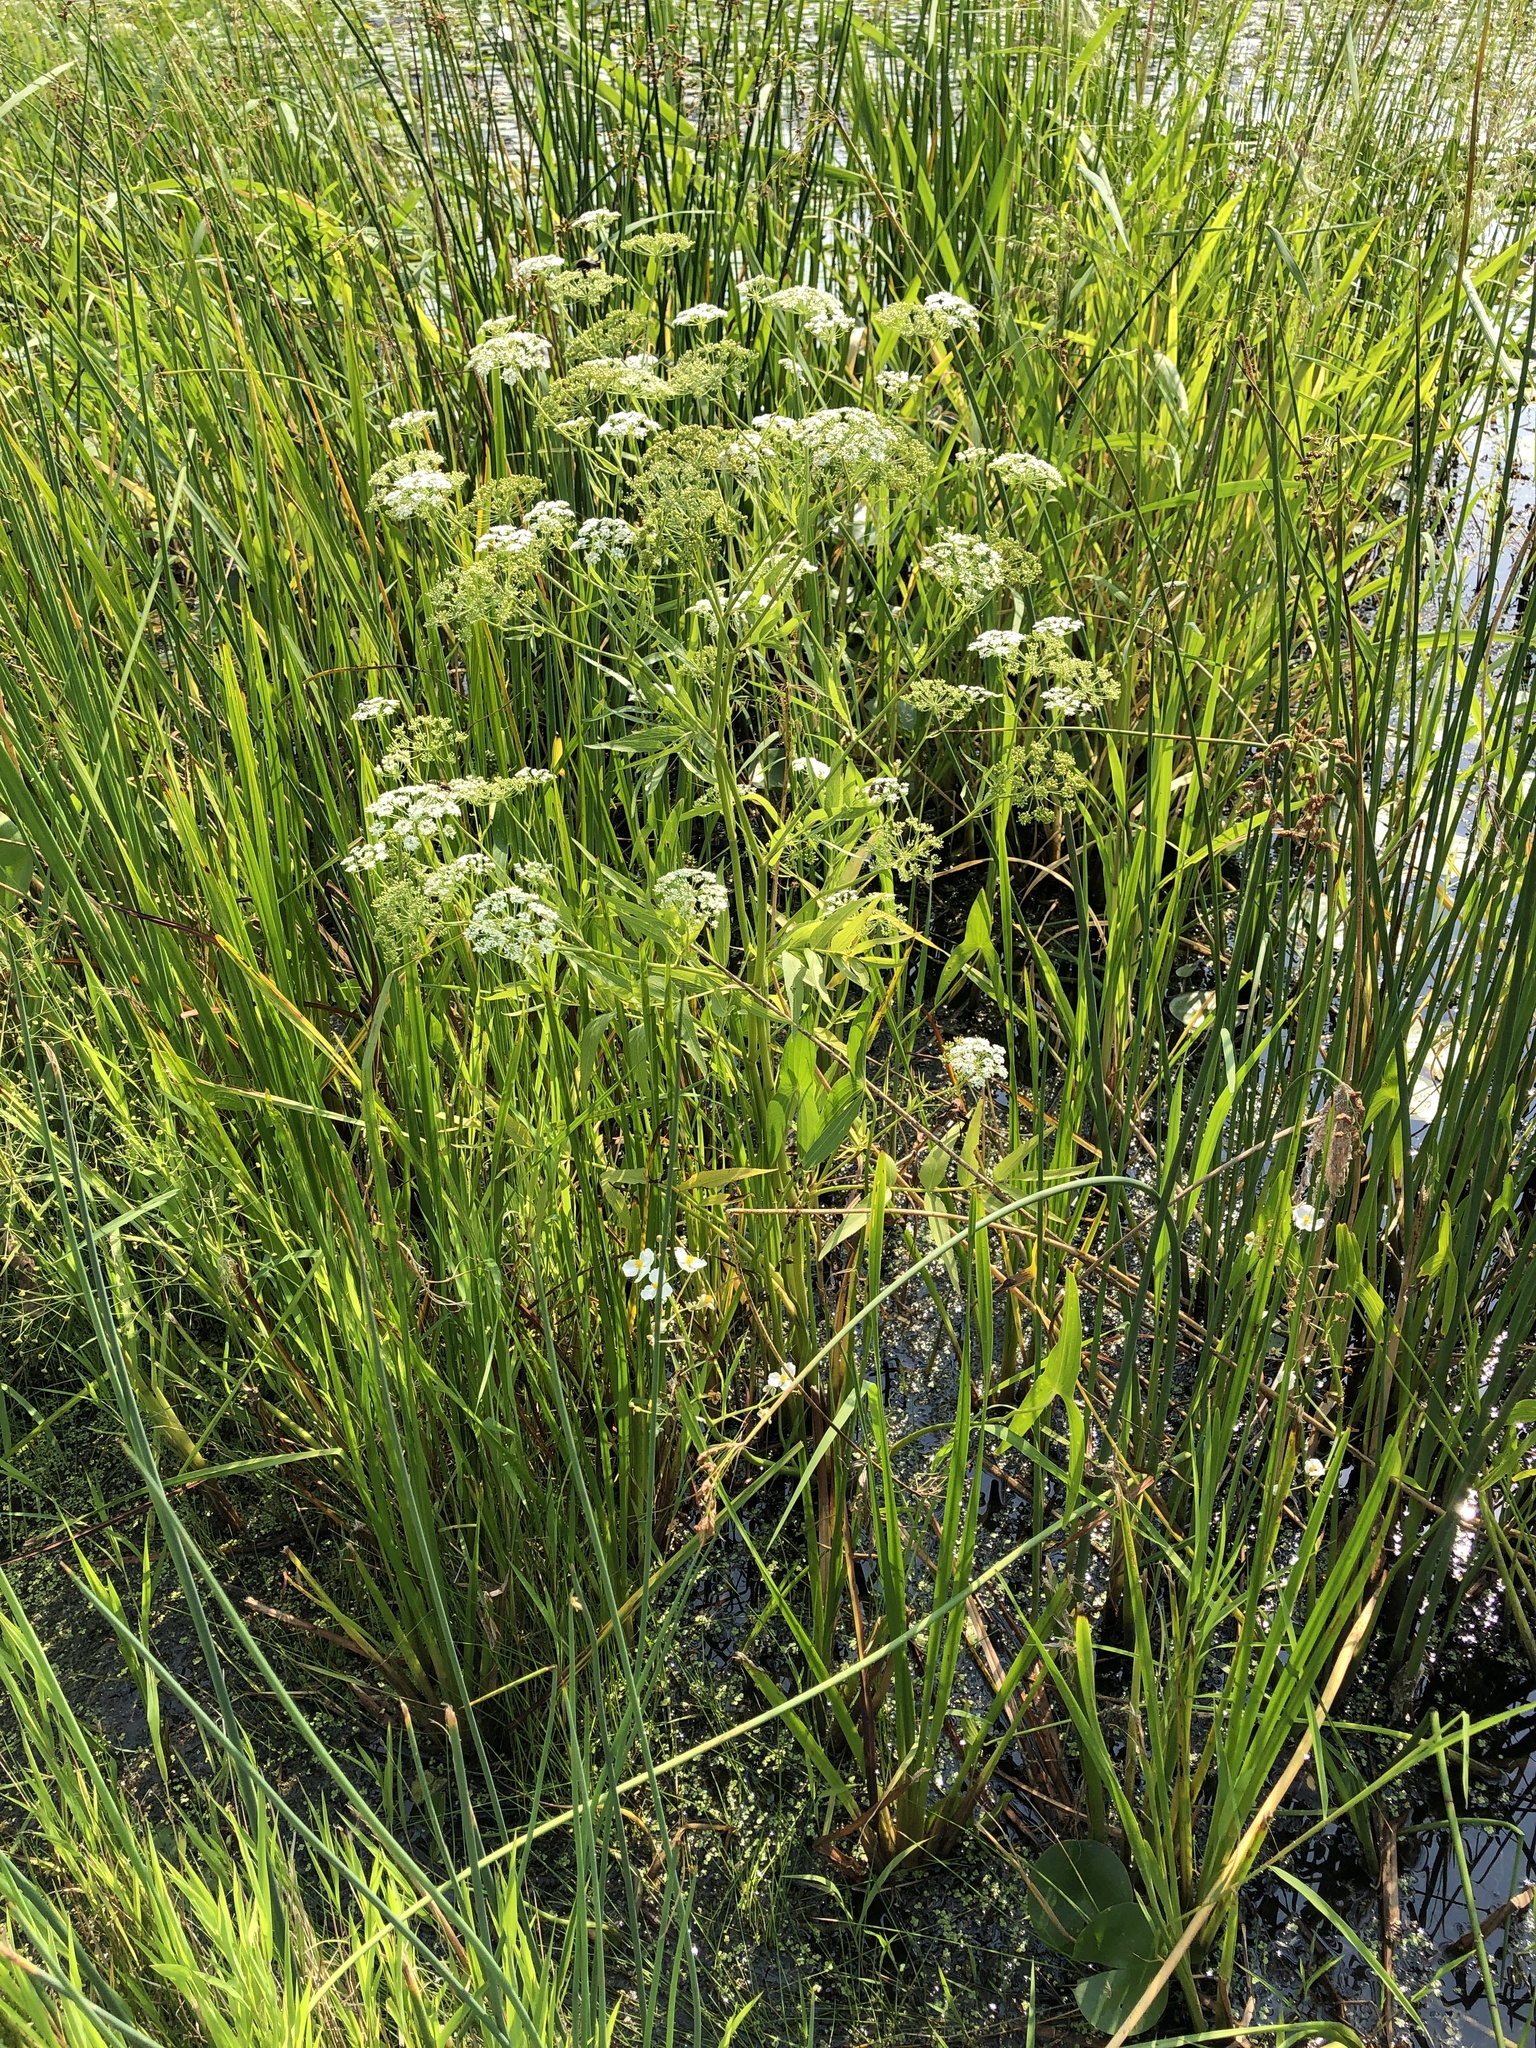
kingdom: Plantae
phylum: Tracheophyta
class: Magnoliopsida
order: Apiales
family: Apiaceae
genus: Sium
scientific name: Sium suave
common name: Hemlock water-parsnip
